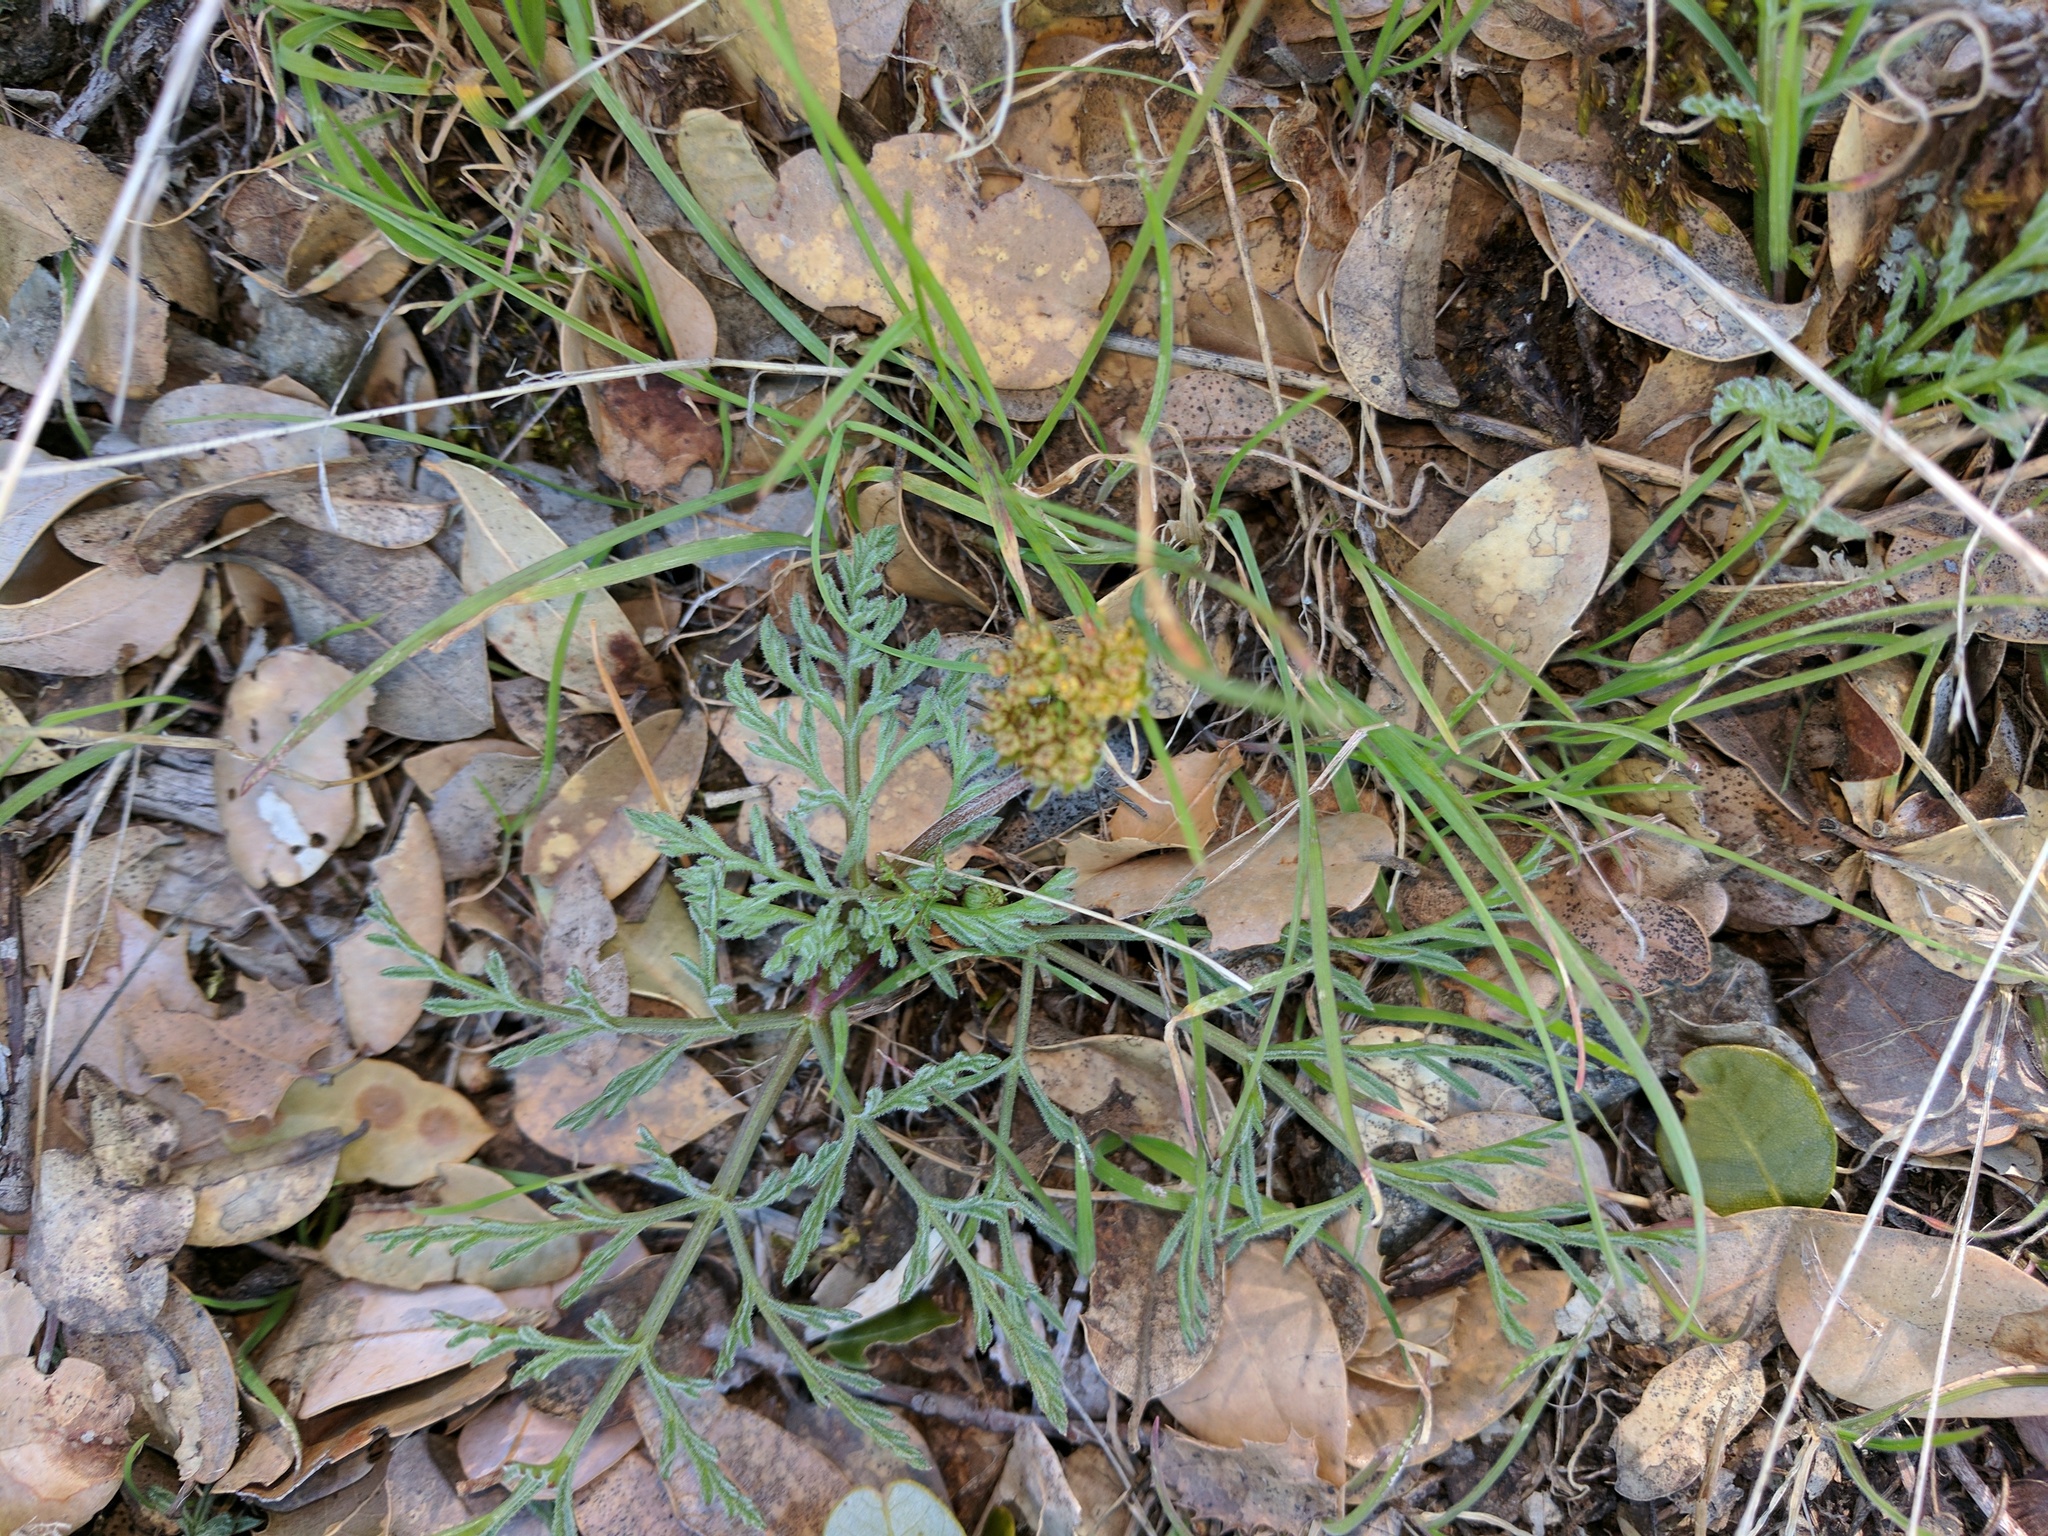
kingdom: Plantae
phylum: Tracheophyta
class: Magnoliopsida
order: Apiales
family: Apiaceae
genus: Lomatium
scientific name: Lomatium observatorium
